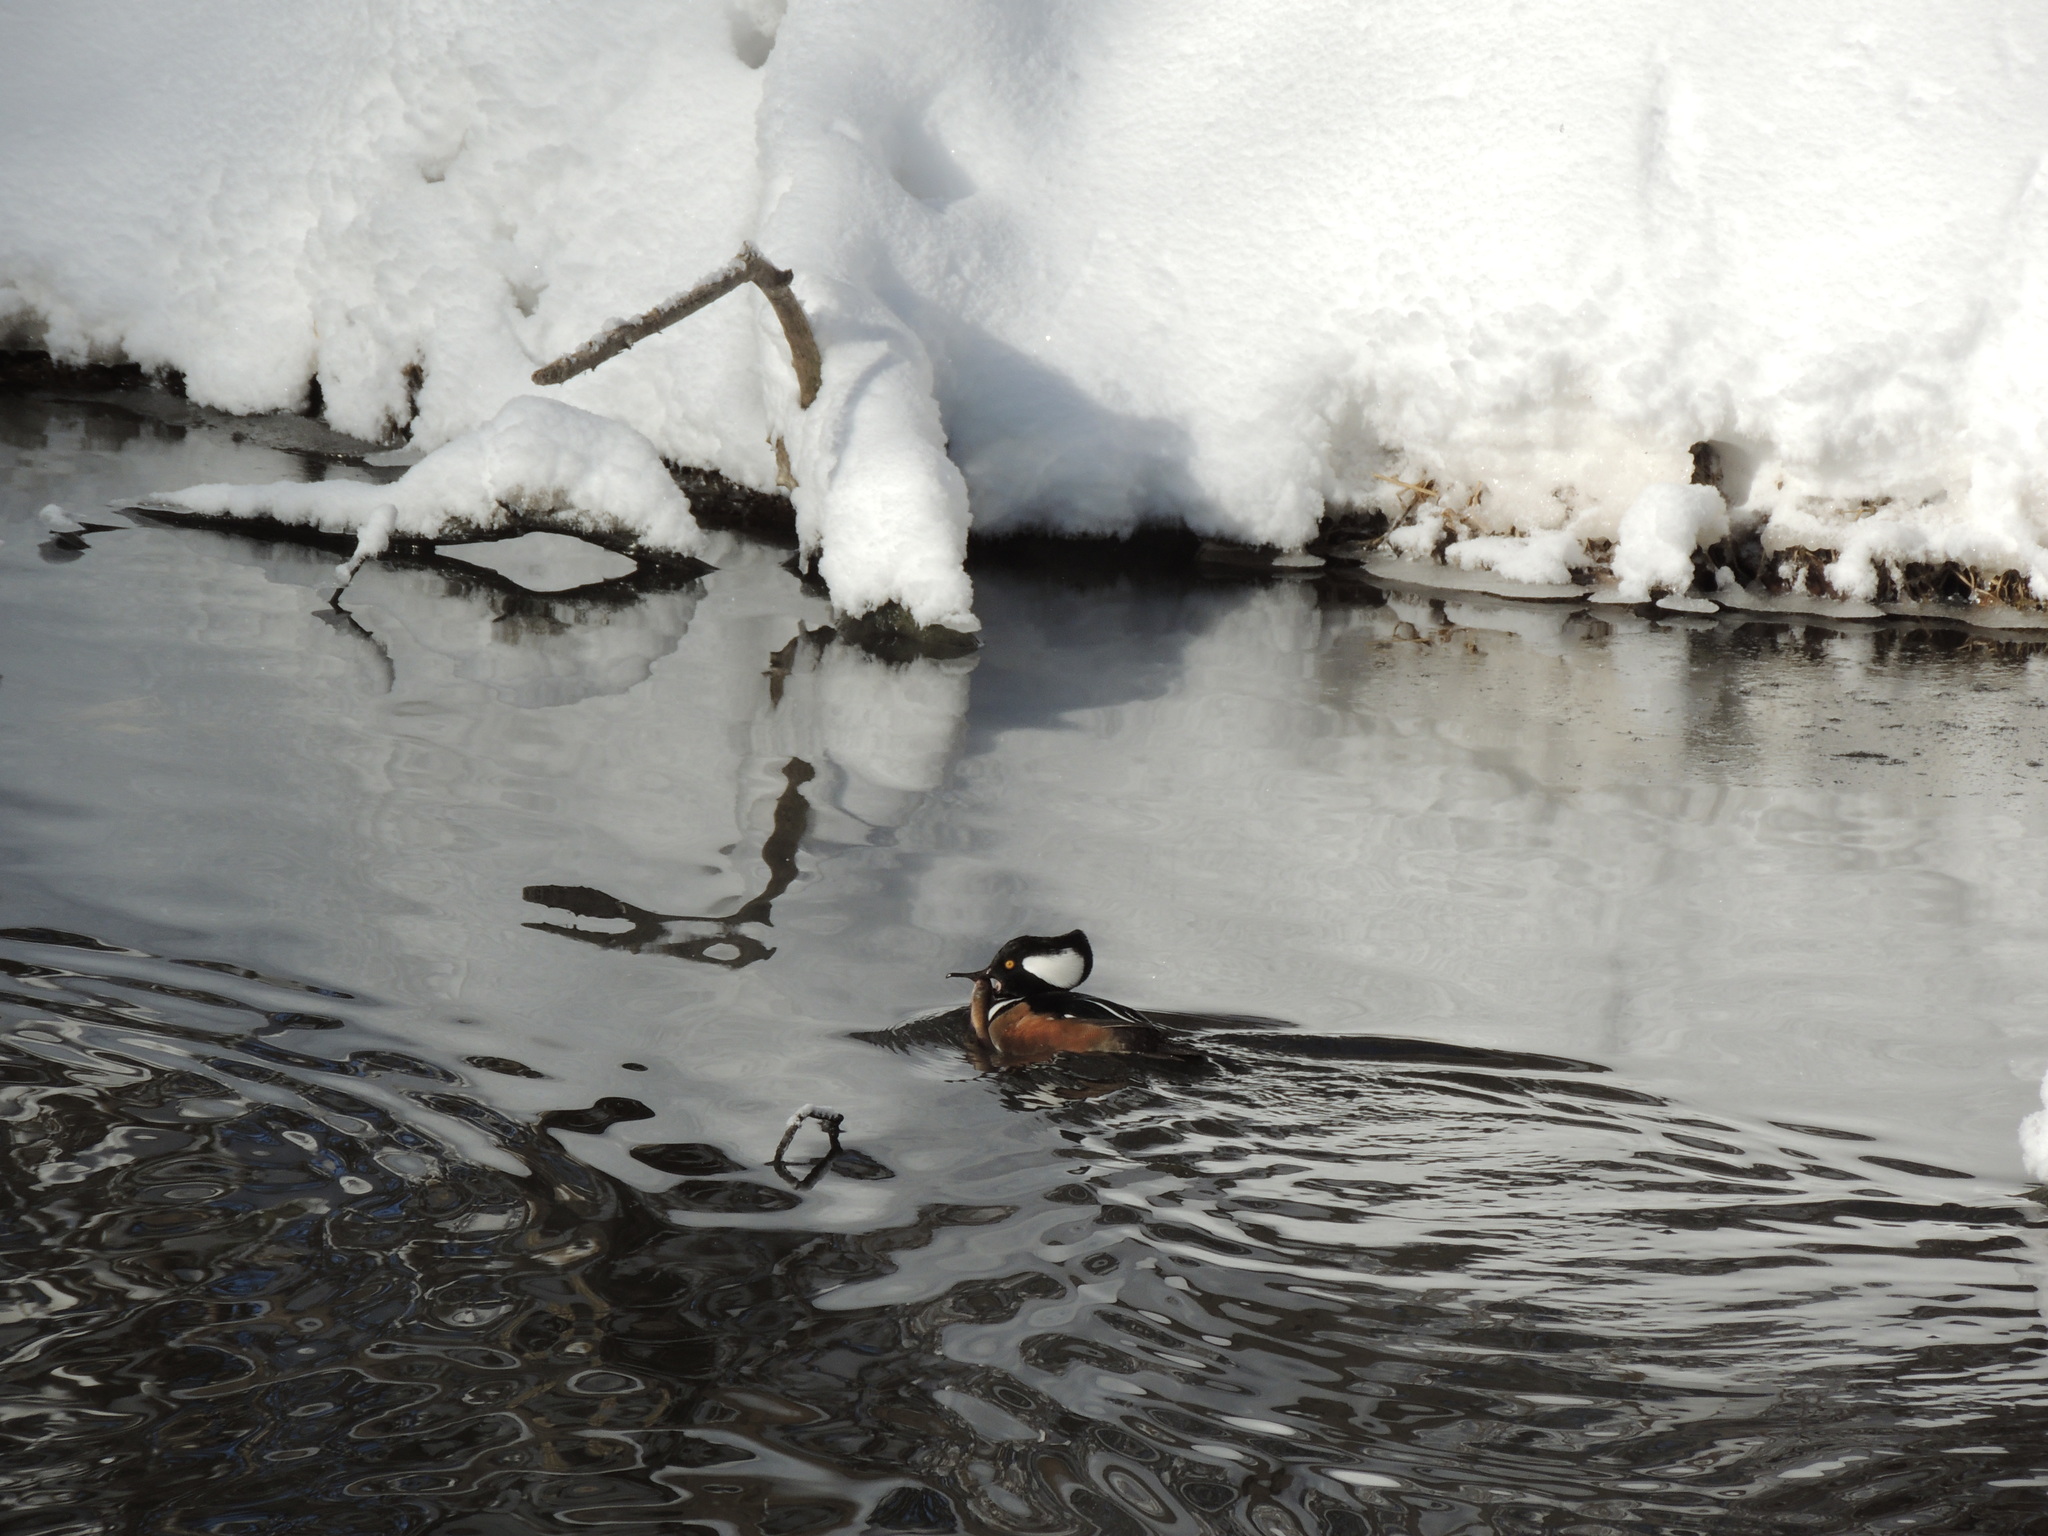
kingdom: Animalia
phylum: Chordata
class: Aves
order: Anseriformes
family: Anatidae
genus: Lophodytes
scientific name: Lophodytes cucullatus
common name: Hooded merganser
